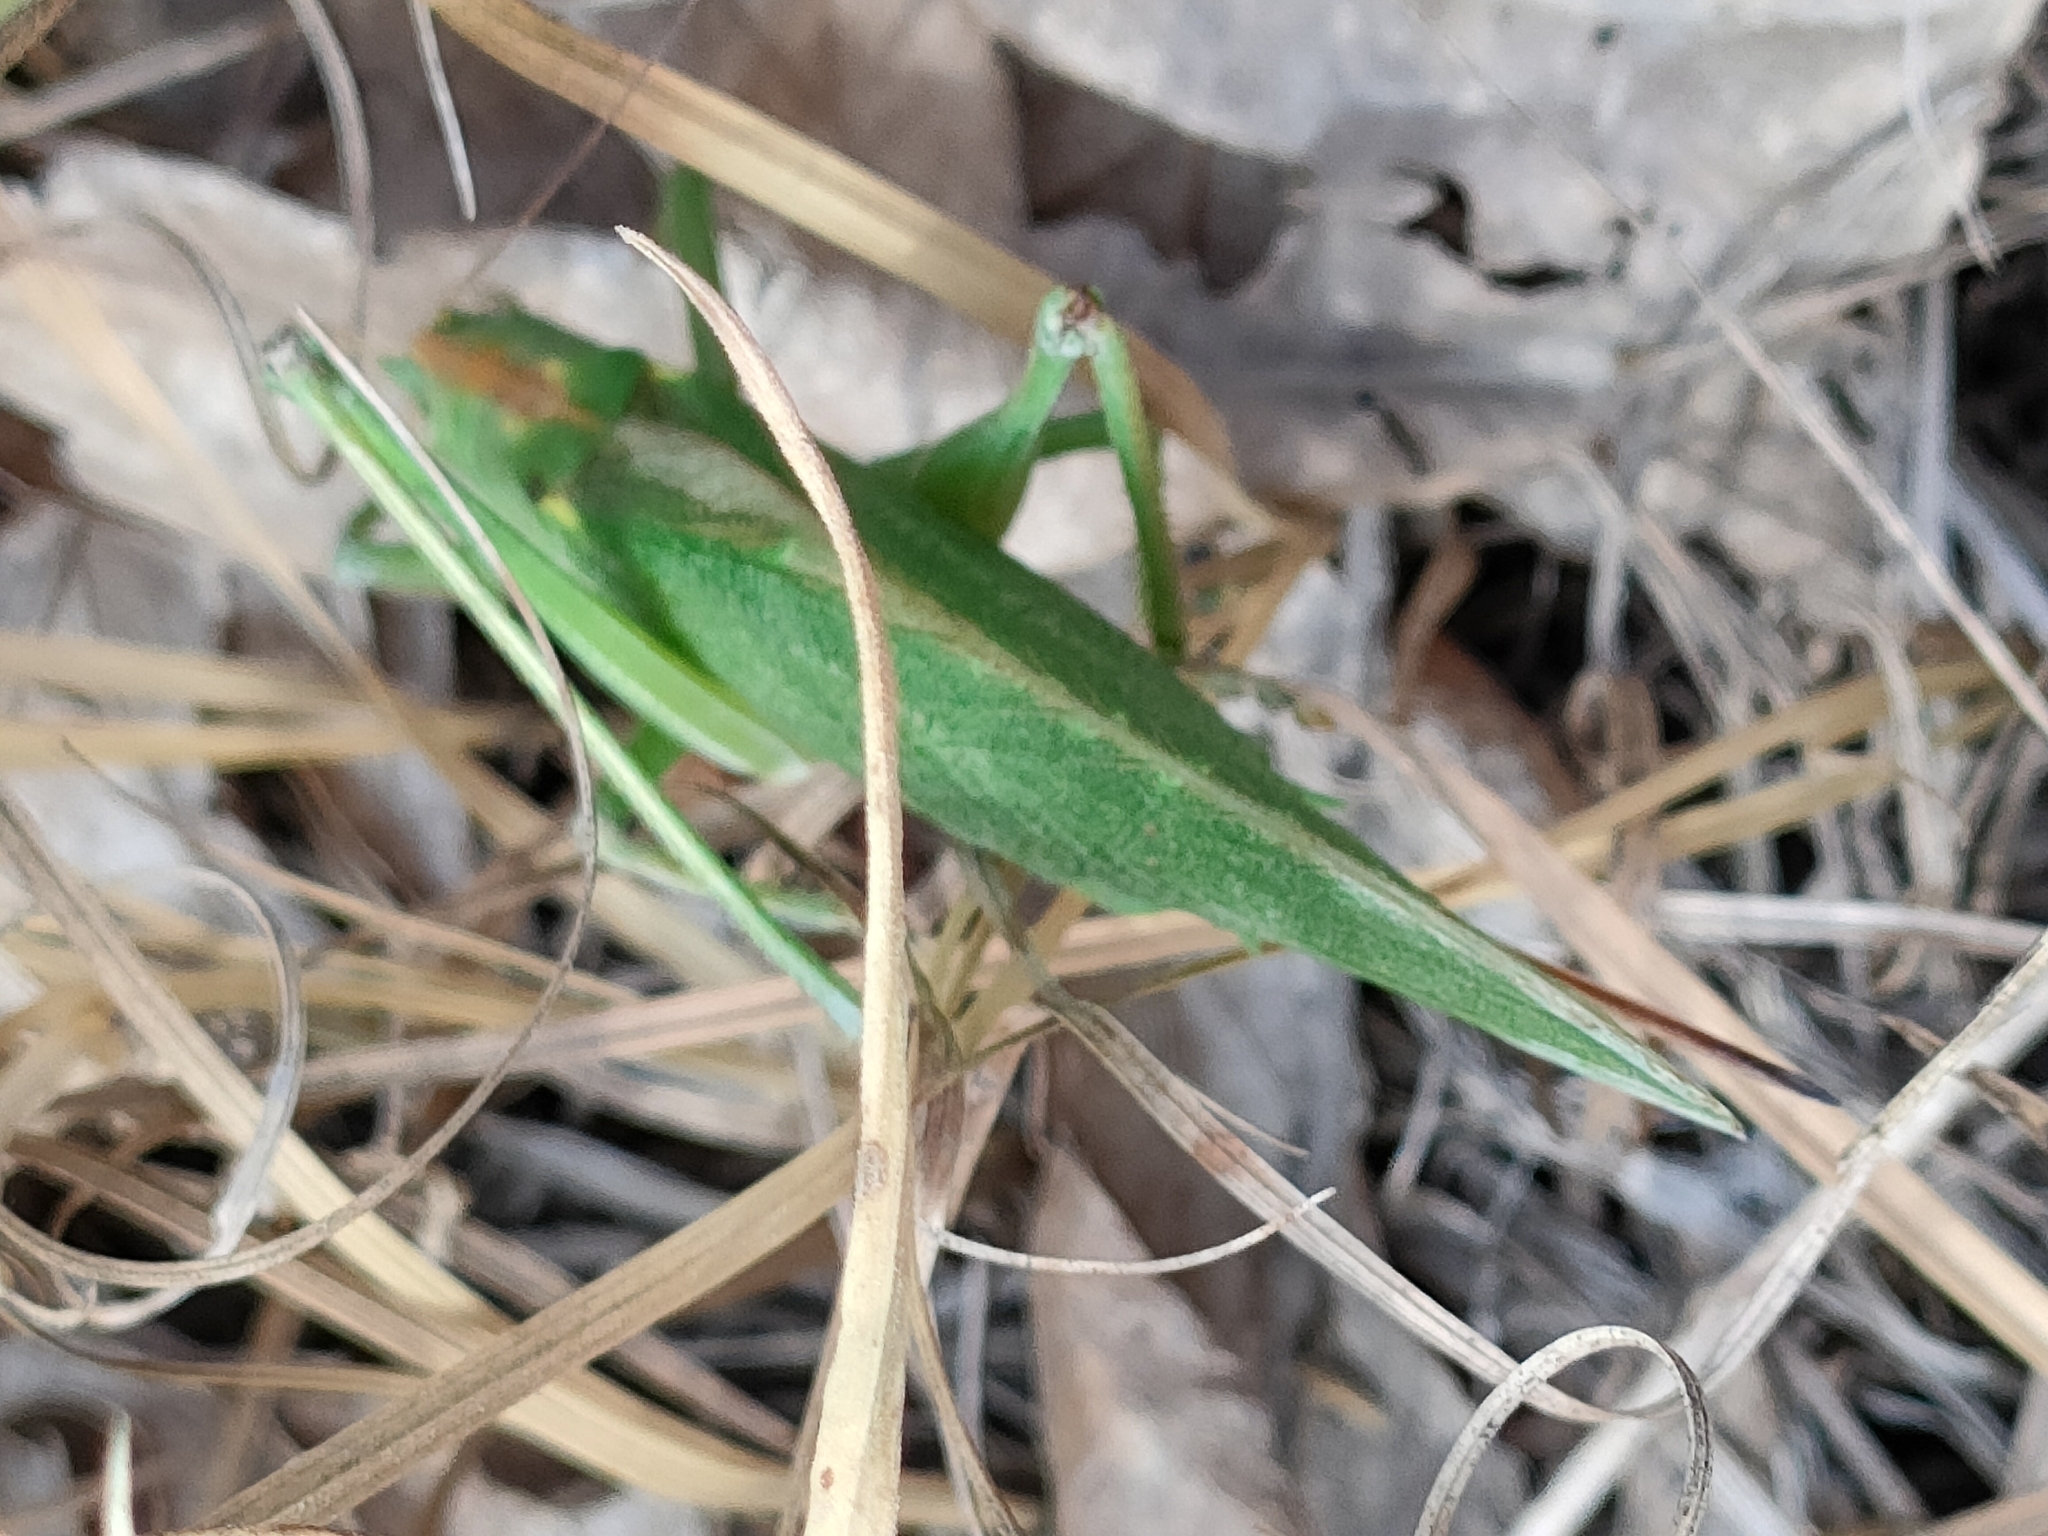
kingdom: Animalia
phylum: Arthropoda
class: Insecta
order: Orthoptera
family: Tettigoniidae
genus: Tettigonia
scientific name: Tettigonia viridissima
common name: Great green bush-cricket
